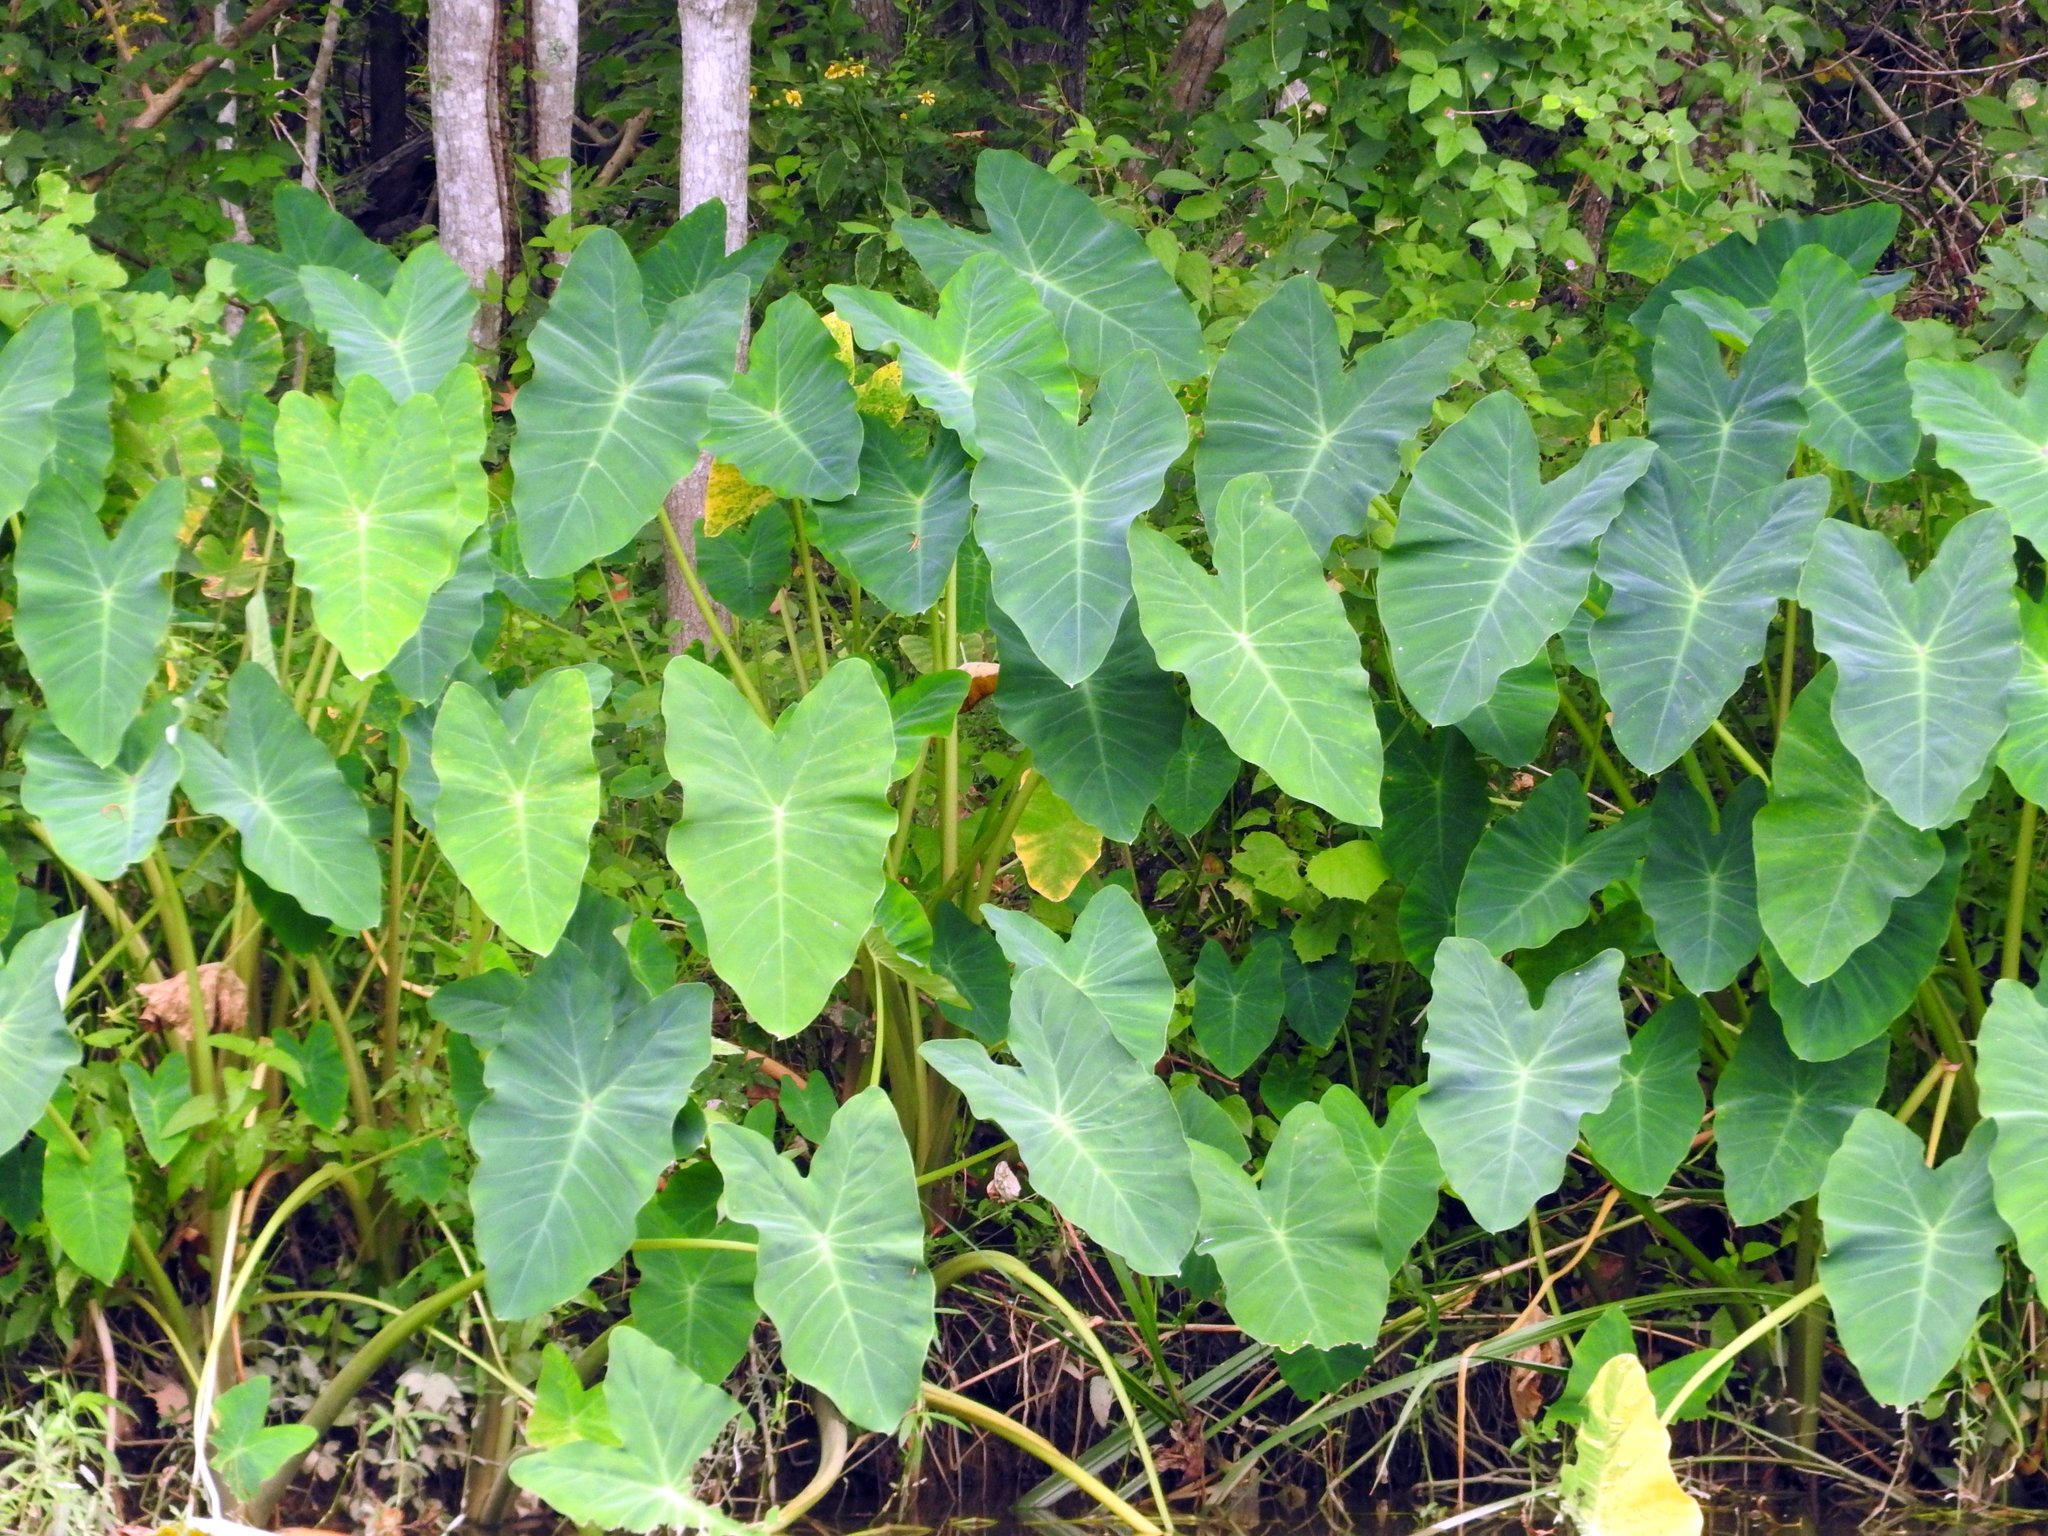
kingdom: Plantae
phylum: Tracheophyta
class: Liliopsida
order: Alismatales
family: Araceae
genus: Colocasia
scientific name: Colocasia esculenta
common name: Taro
